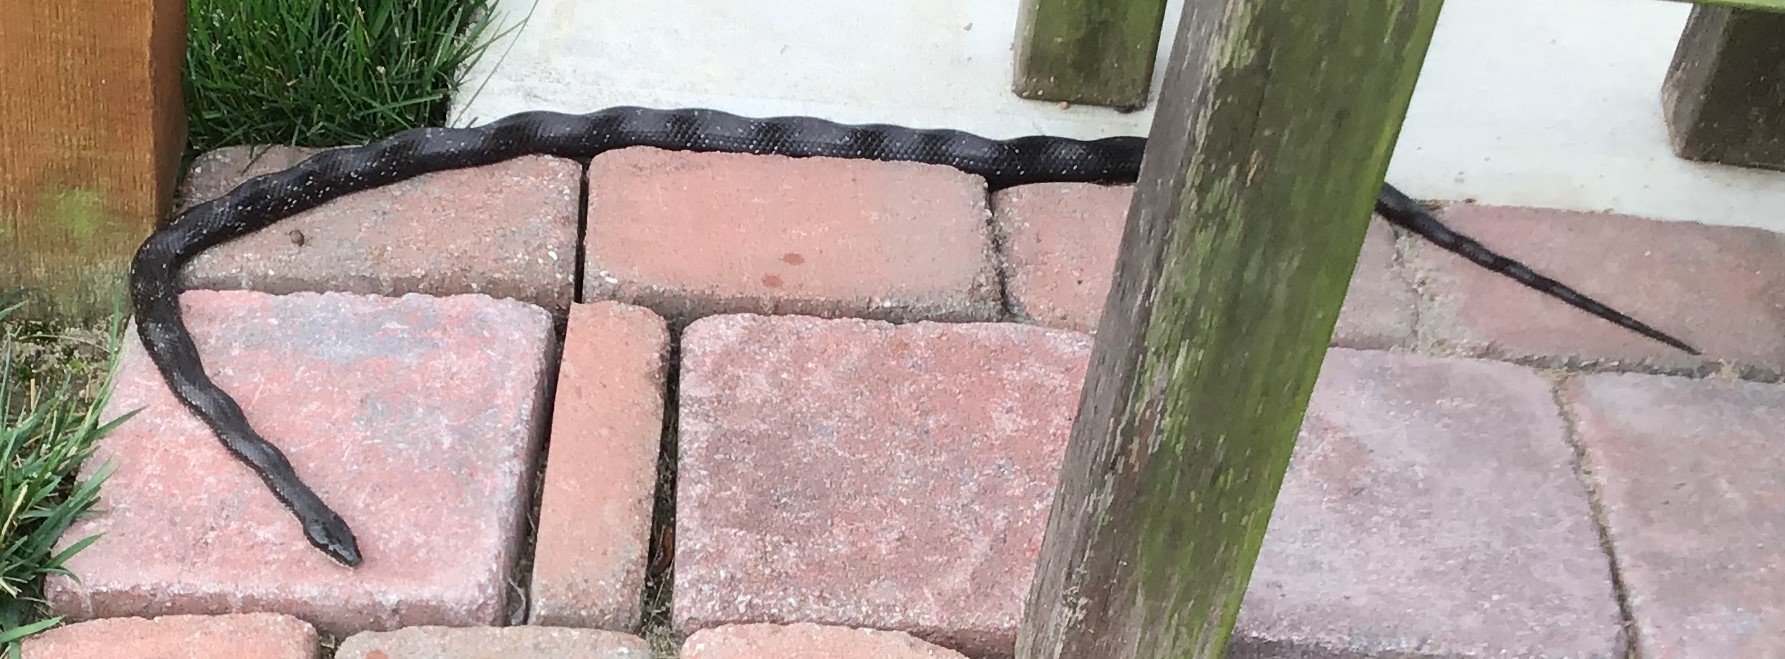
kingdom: Animalia
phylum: Chordata
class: Squamata
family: Colubridae
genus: Pantherophis
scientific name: Pantherophis alleghaniensis
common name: Eastern rat snake
